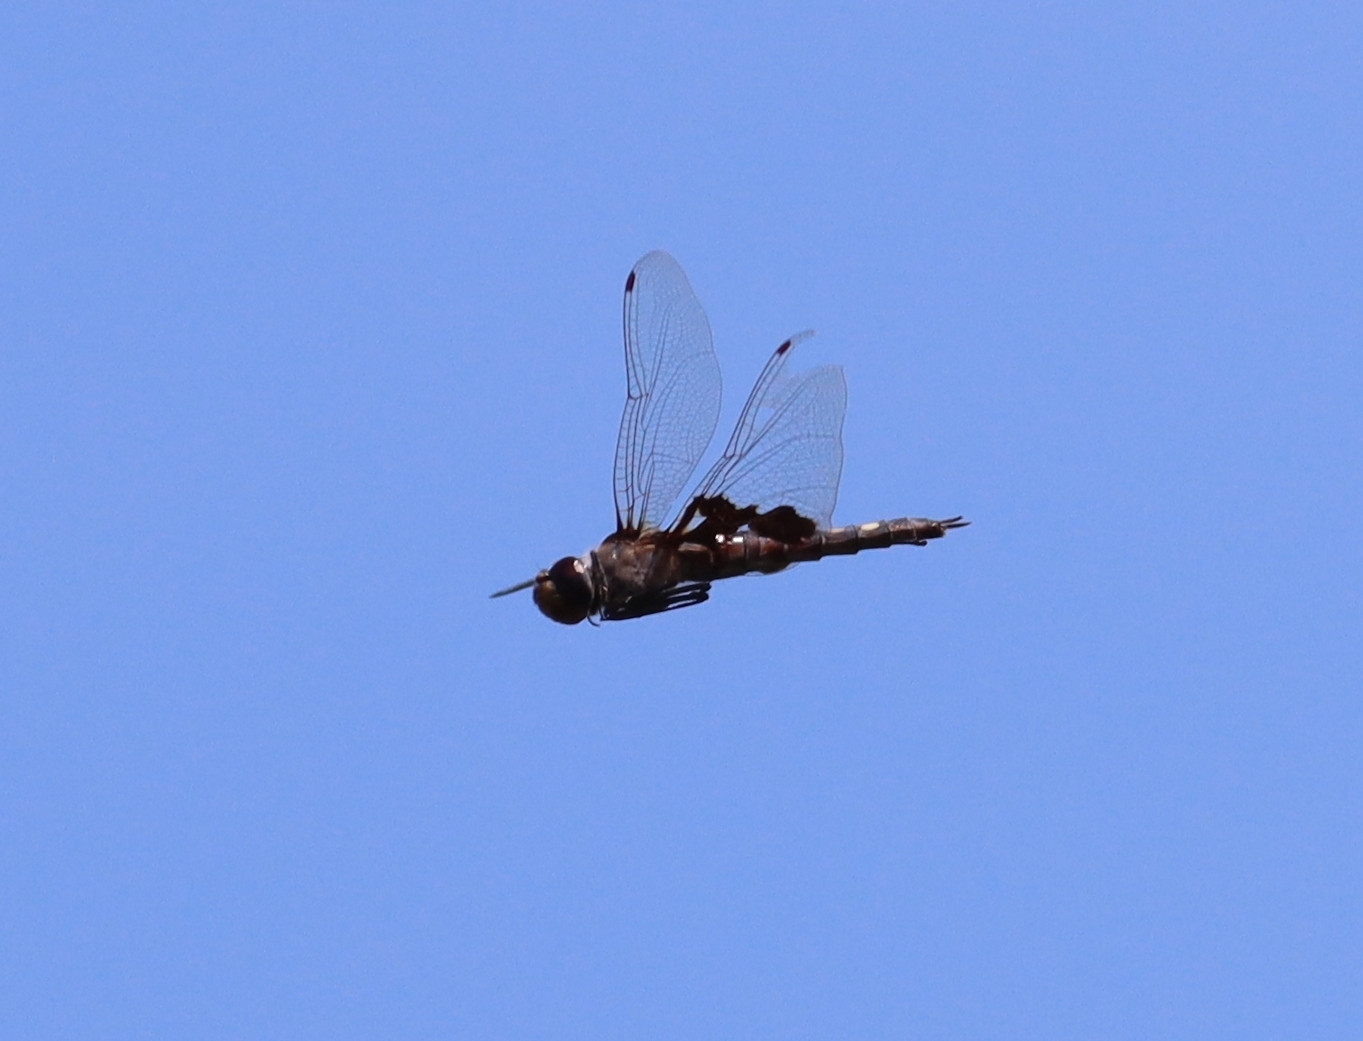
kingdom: Animalia
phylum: Arthropoda
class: Insecta
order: Odonata
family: Libellulidae
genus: Tramea
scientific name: Tramea lacerata
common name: Black saddlebags
